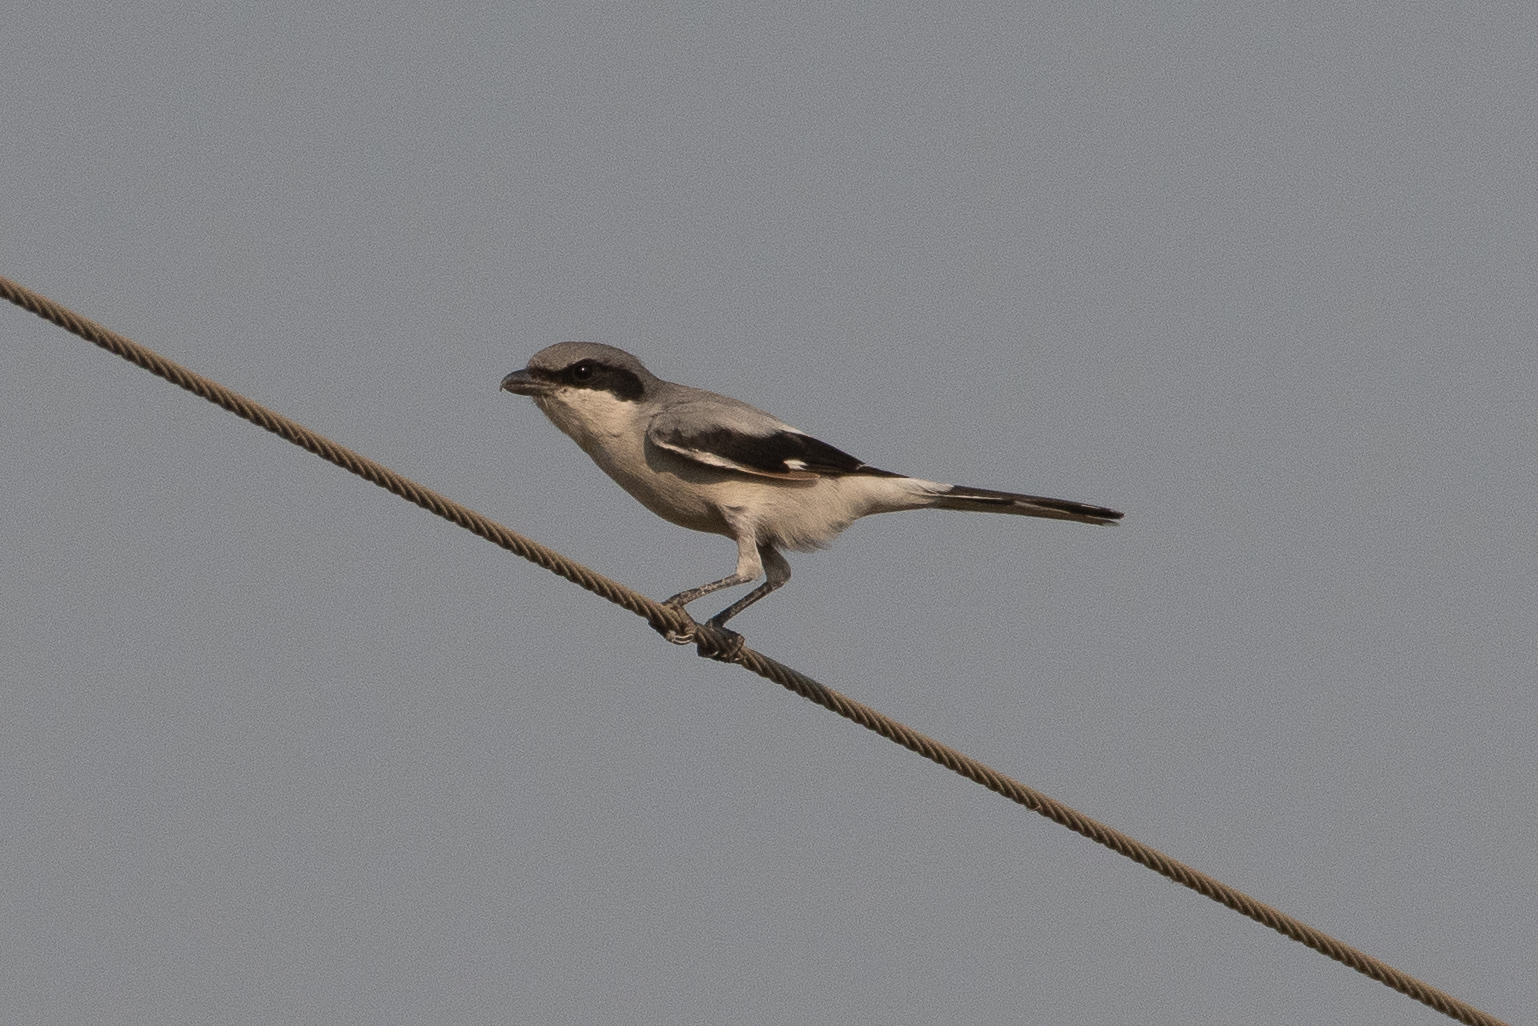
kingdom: Animalia
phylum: Chordata
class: Aves
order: Passeriformes
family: Laniidae
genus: Lanius
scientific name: Lanius ludovicianus
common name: Loggerhead shrike
